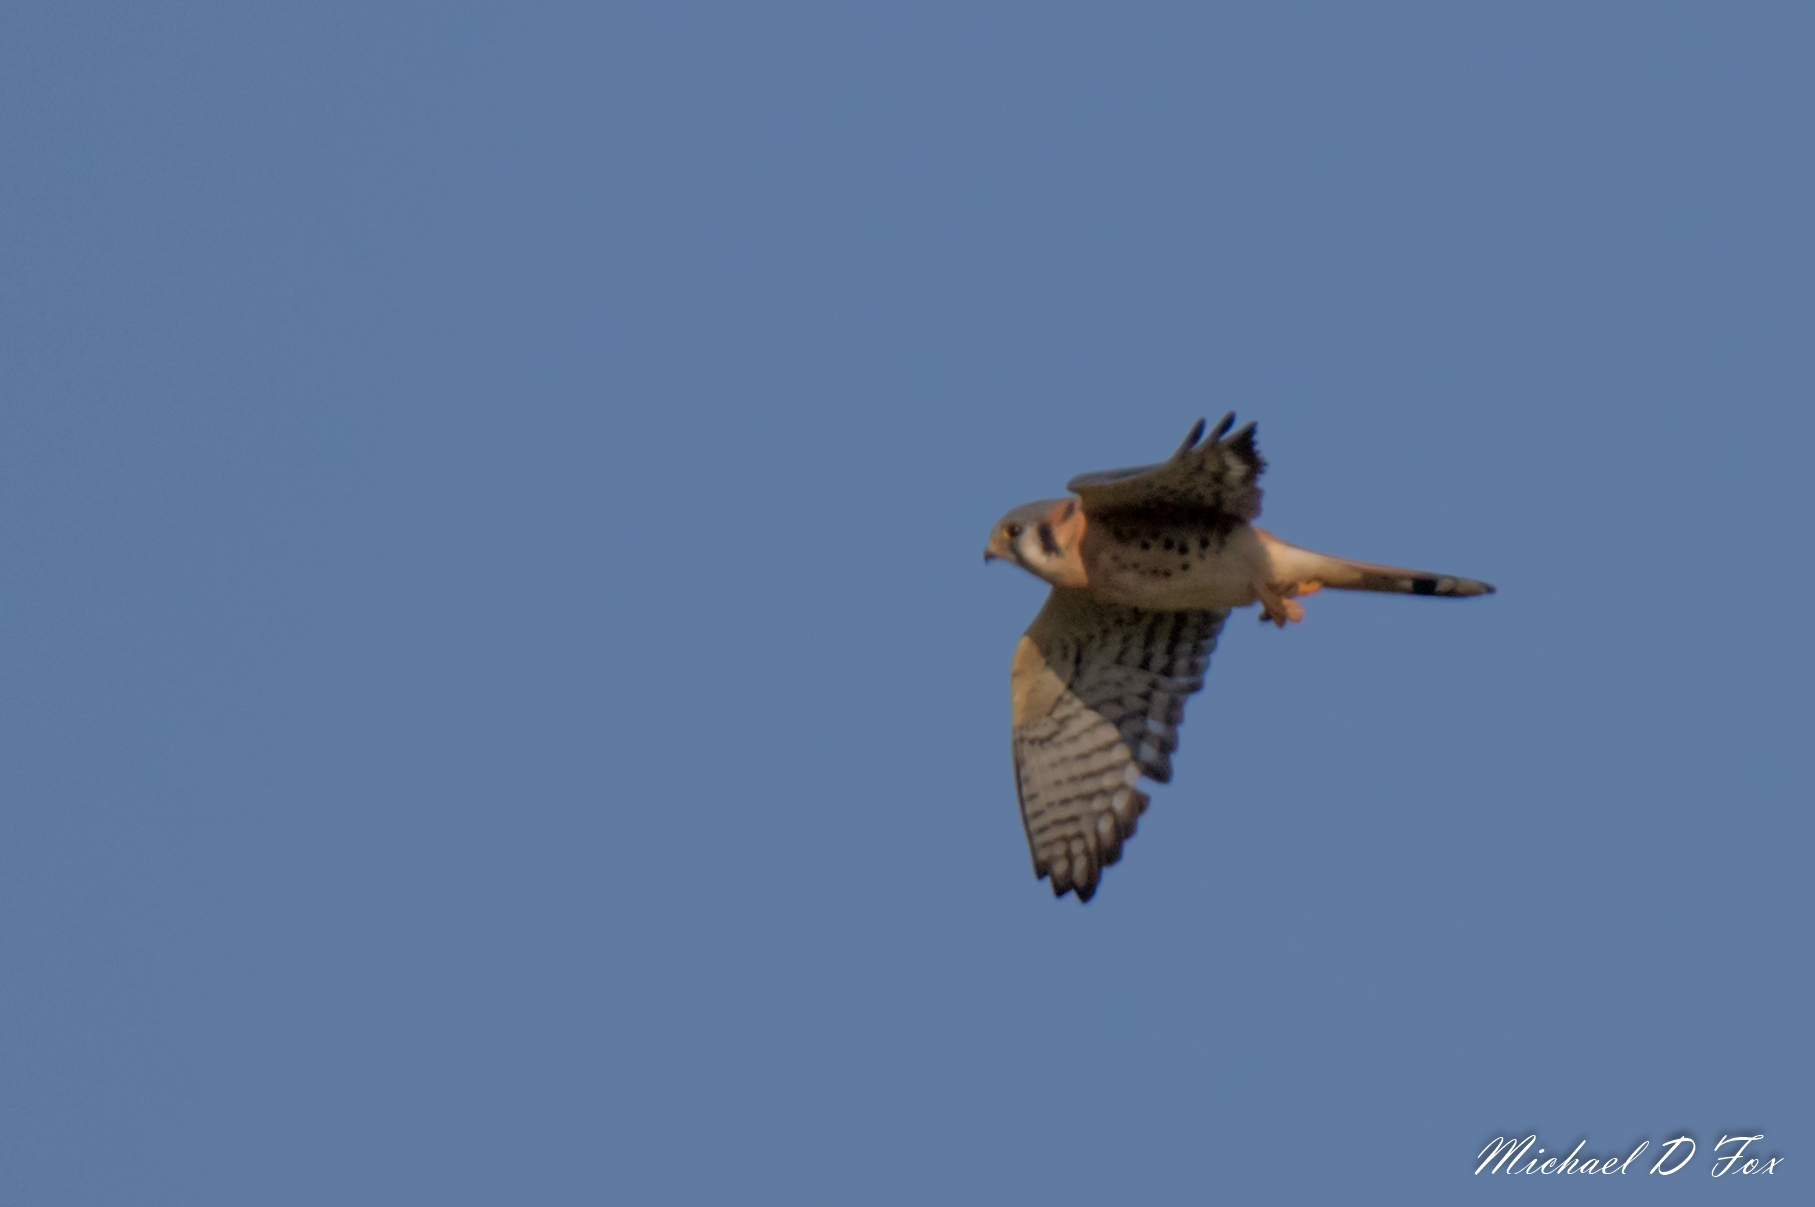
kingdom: Animalia
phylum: Chordata
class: Aves
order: Falconiformes
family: Falconidae
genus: Falco
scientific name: Falco sparverius
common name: American kestrel
